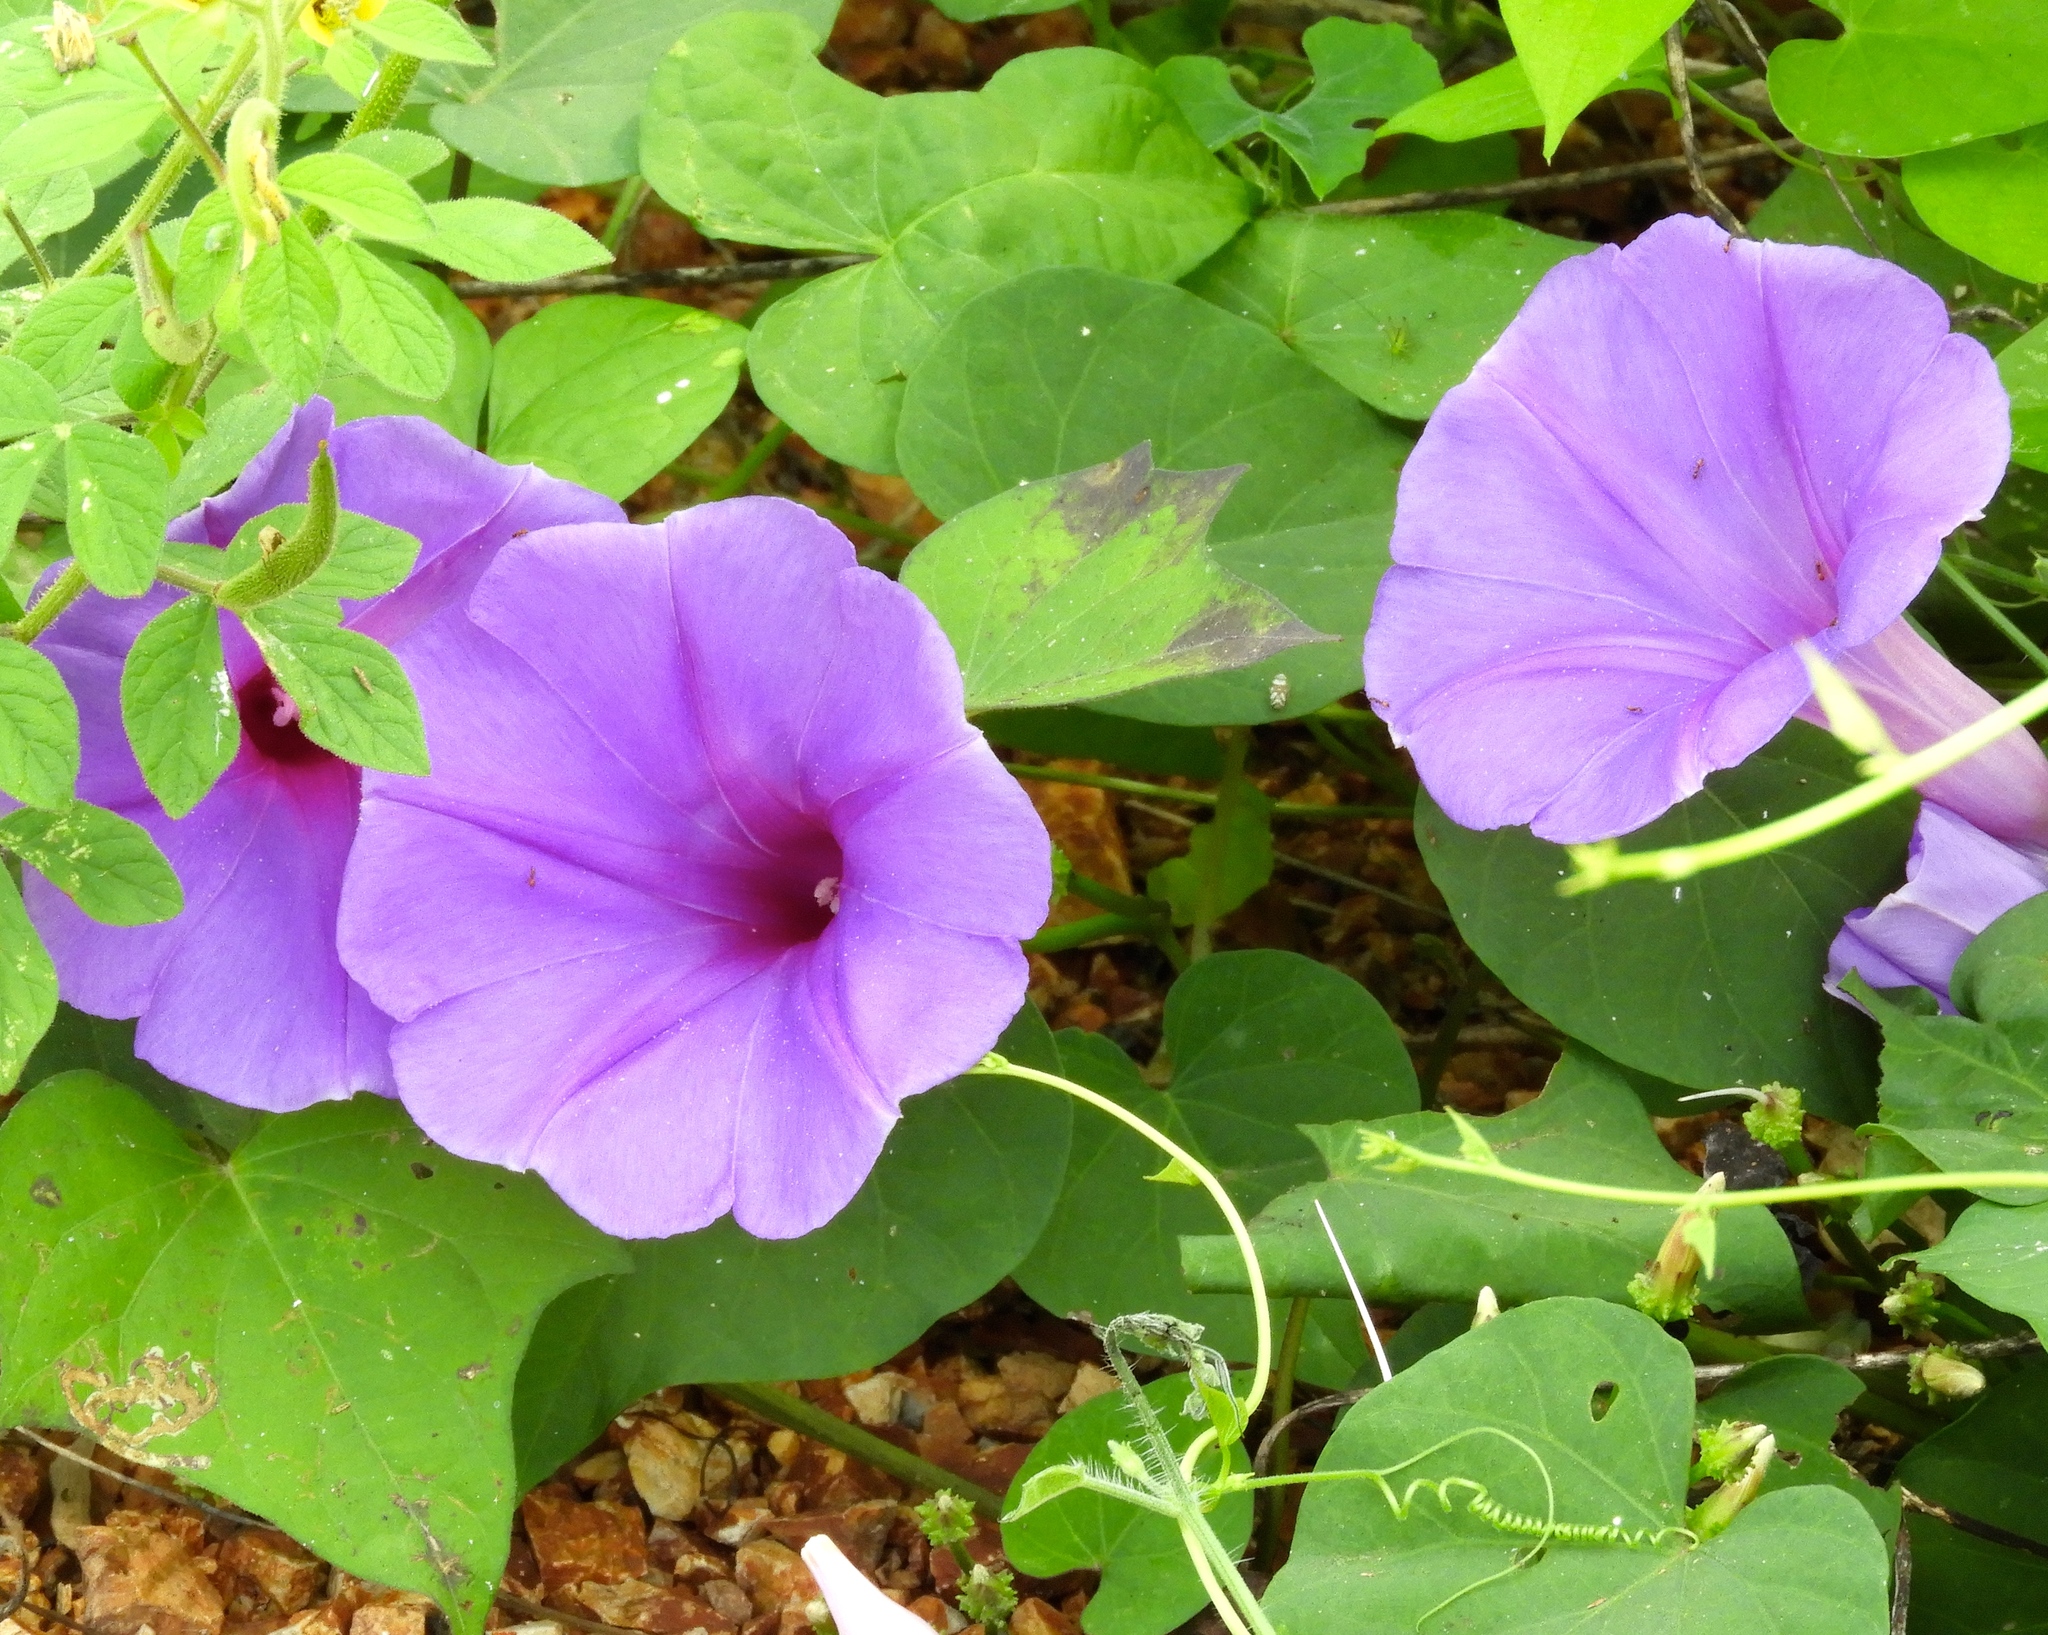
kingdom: Plantae
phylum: Tracheophyta
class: Magnoliopsida
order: Solanales
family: Convolvulaceae
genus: Ipomoea
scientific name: Ipomoea pedicellaris
